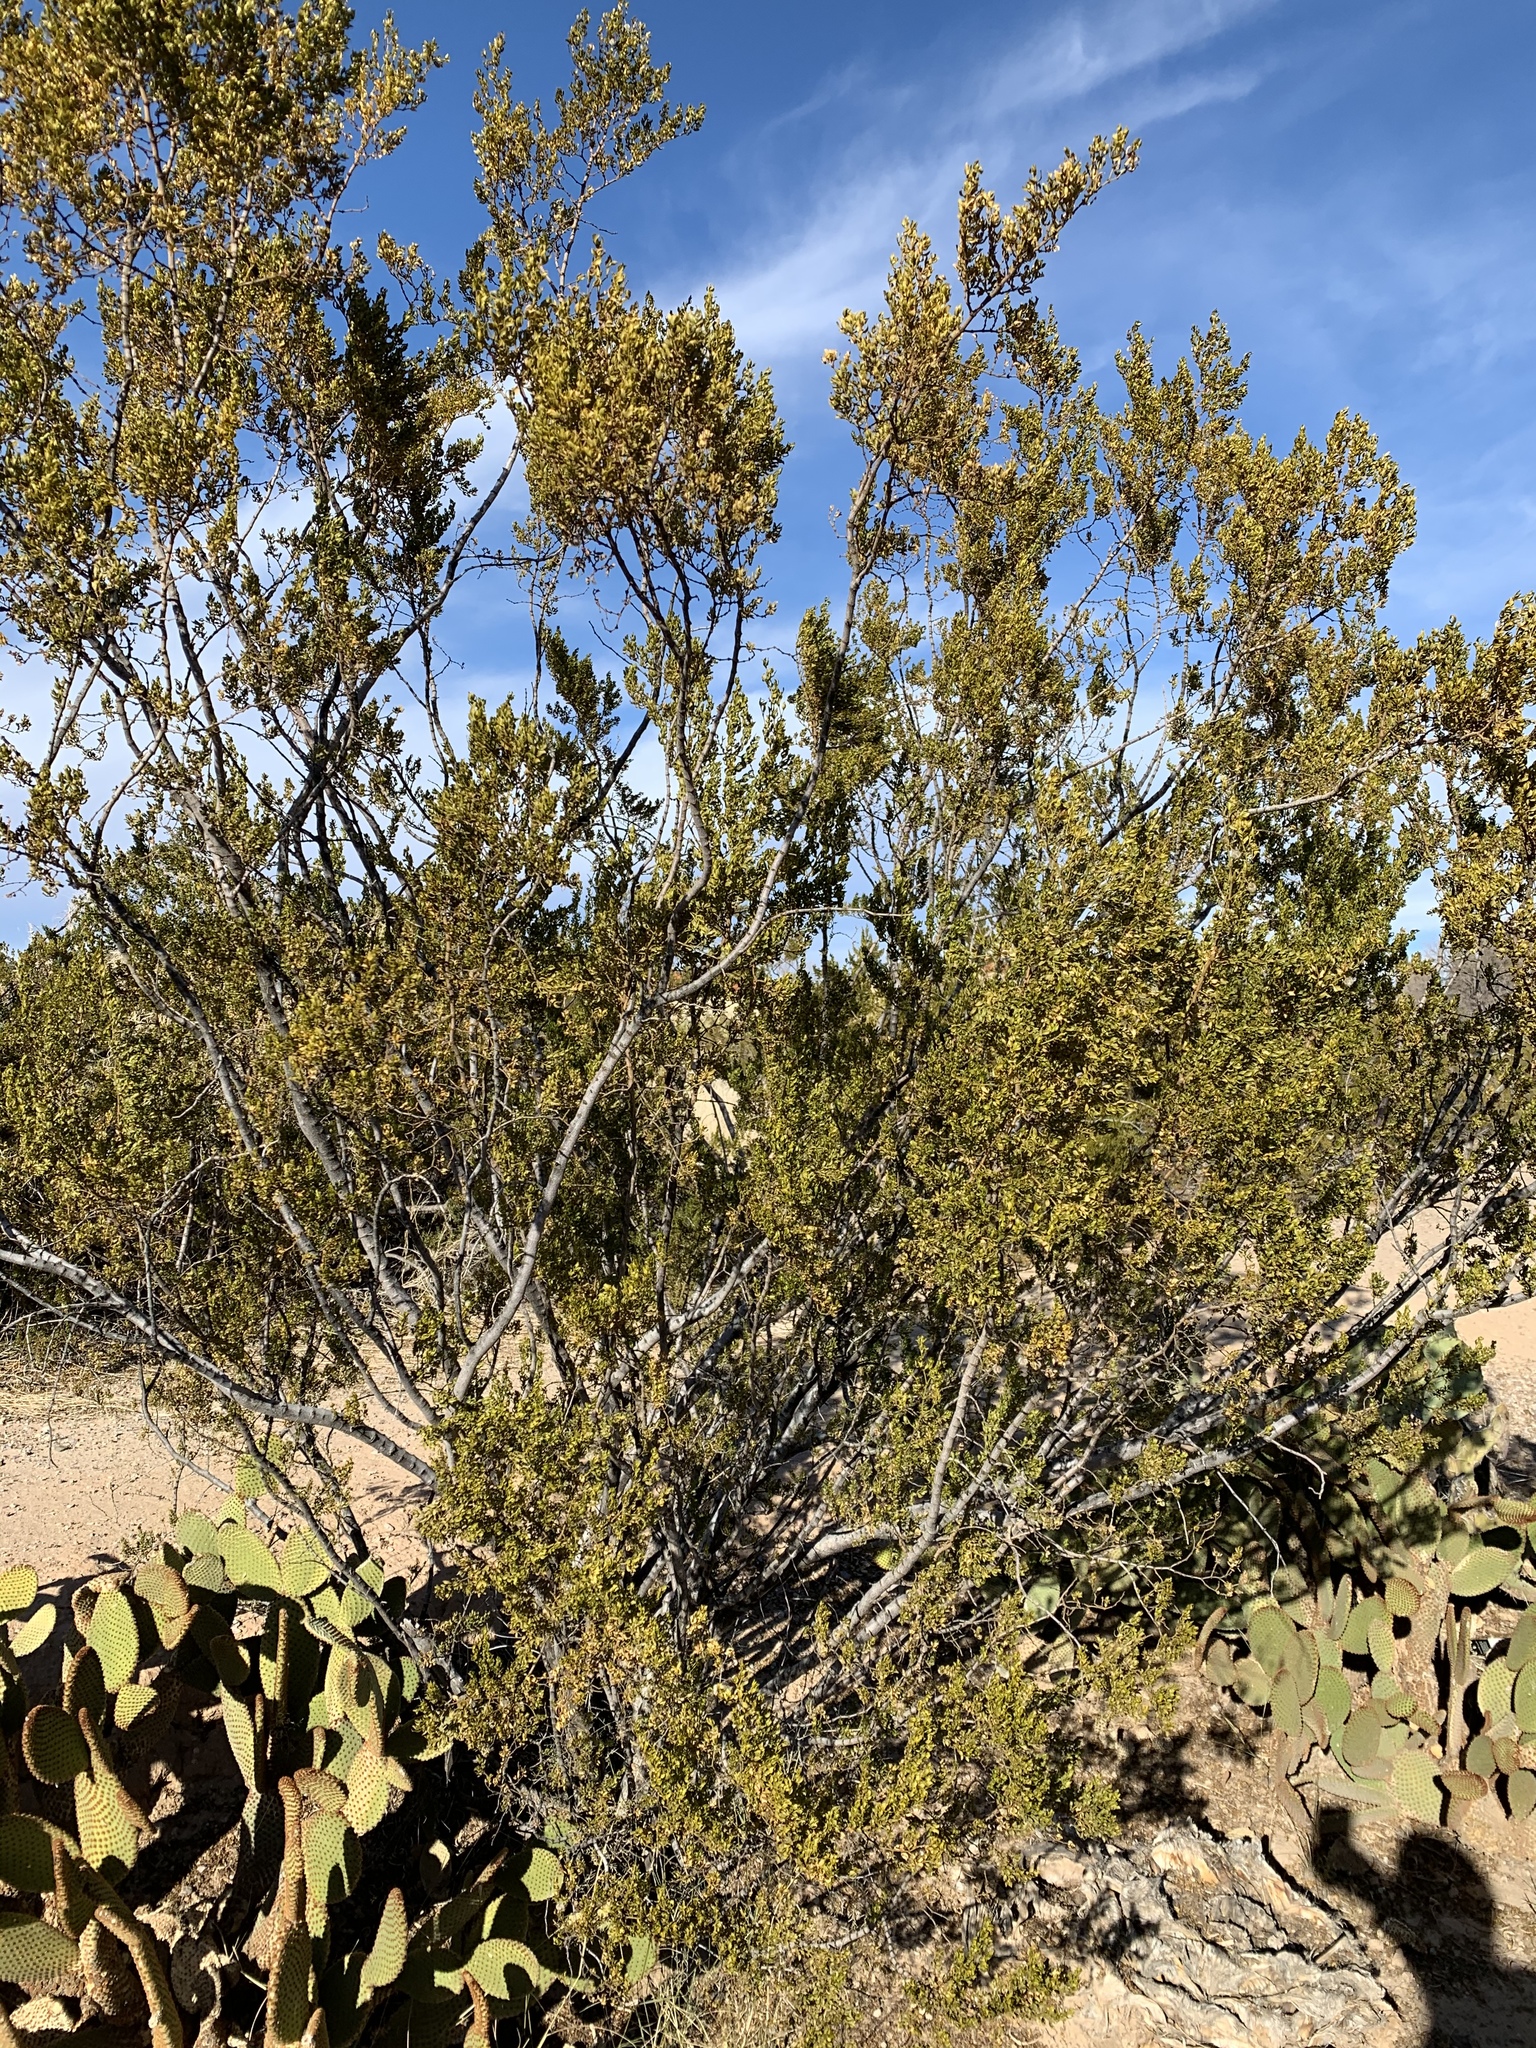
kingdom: Plantae
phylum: Tracheophyta
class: Magnoliopsida
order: Zygophyllales
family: Zygophyllaceae
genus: Larrea
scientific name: Larrea tridentata
